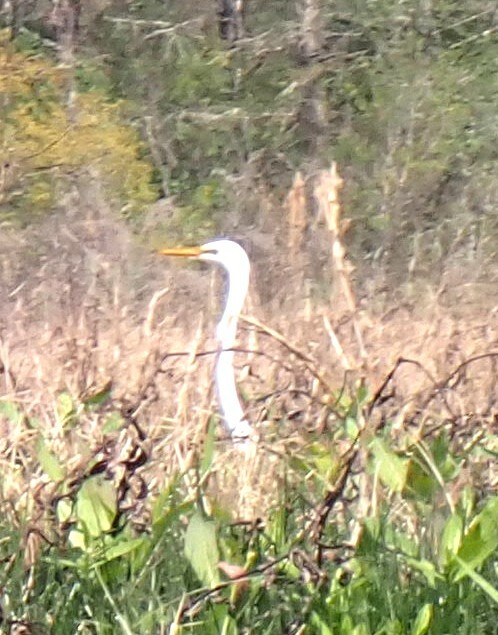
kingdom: Animalia
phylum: Chordata
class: Aves
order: Pelecaniformes
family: Ardeidae
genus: Ardea
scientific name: Ardea alba
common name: Great egret
